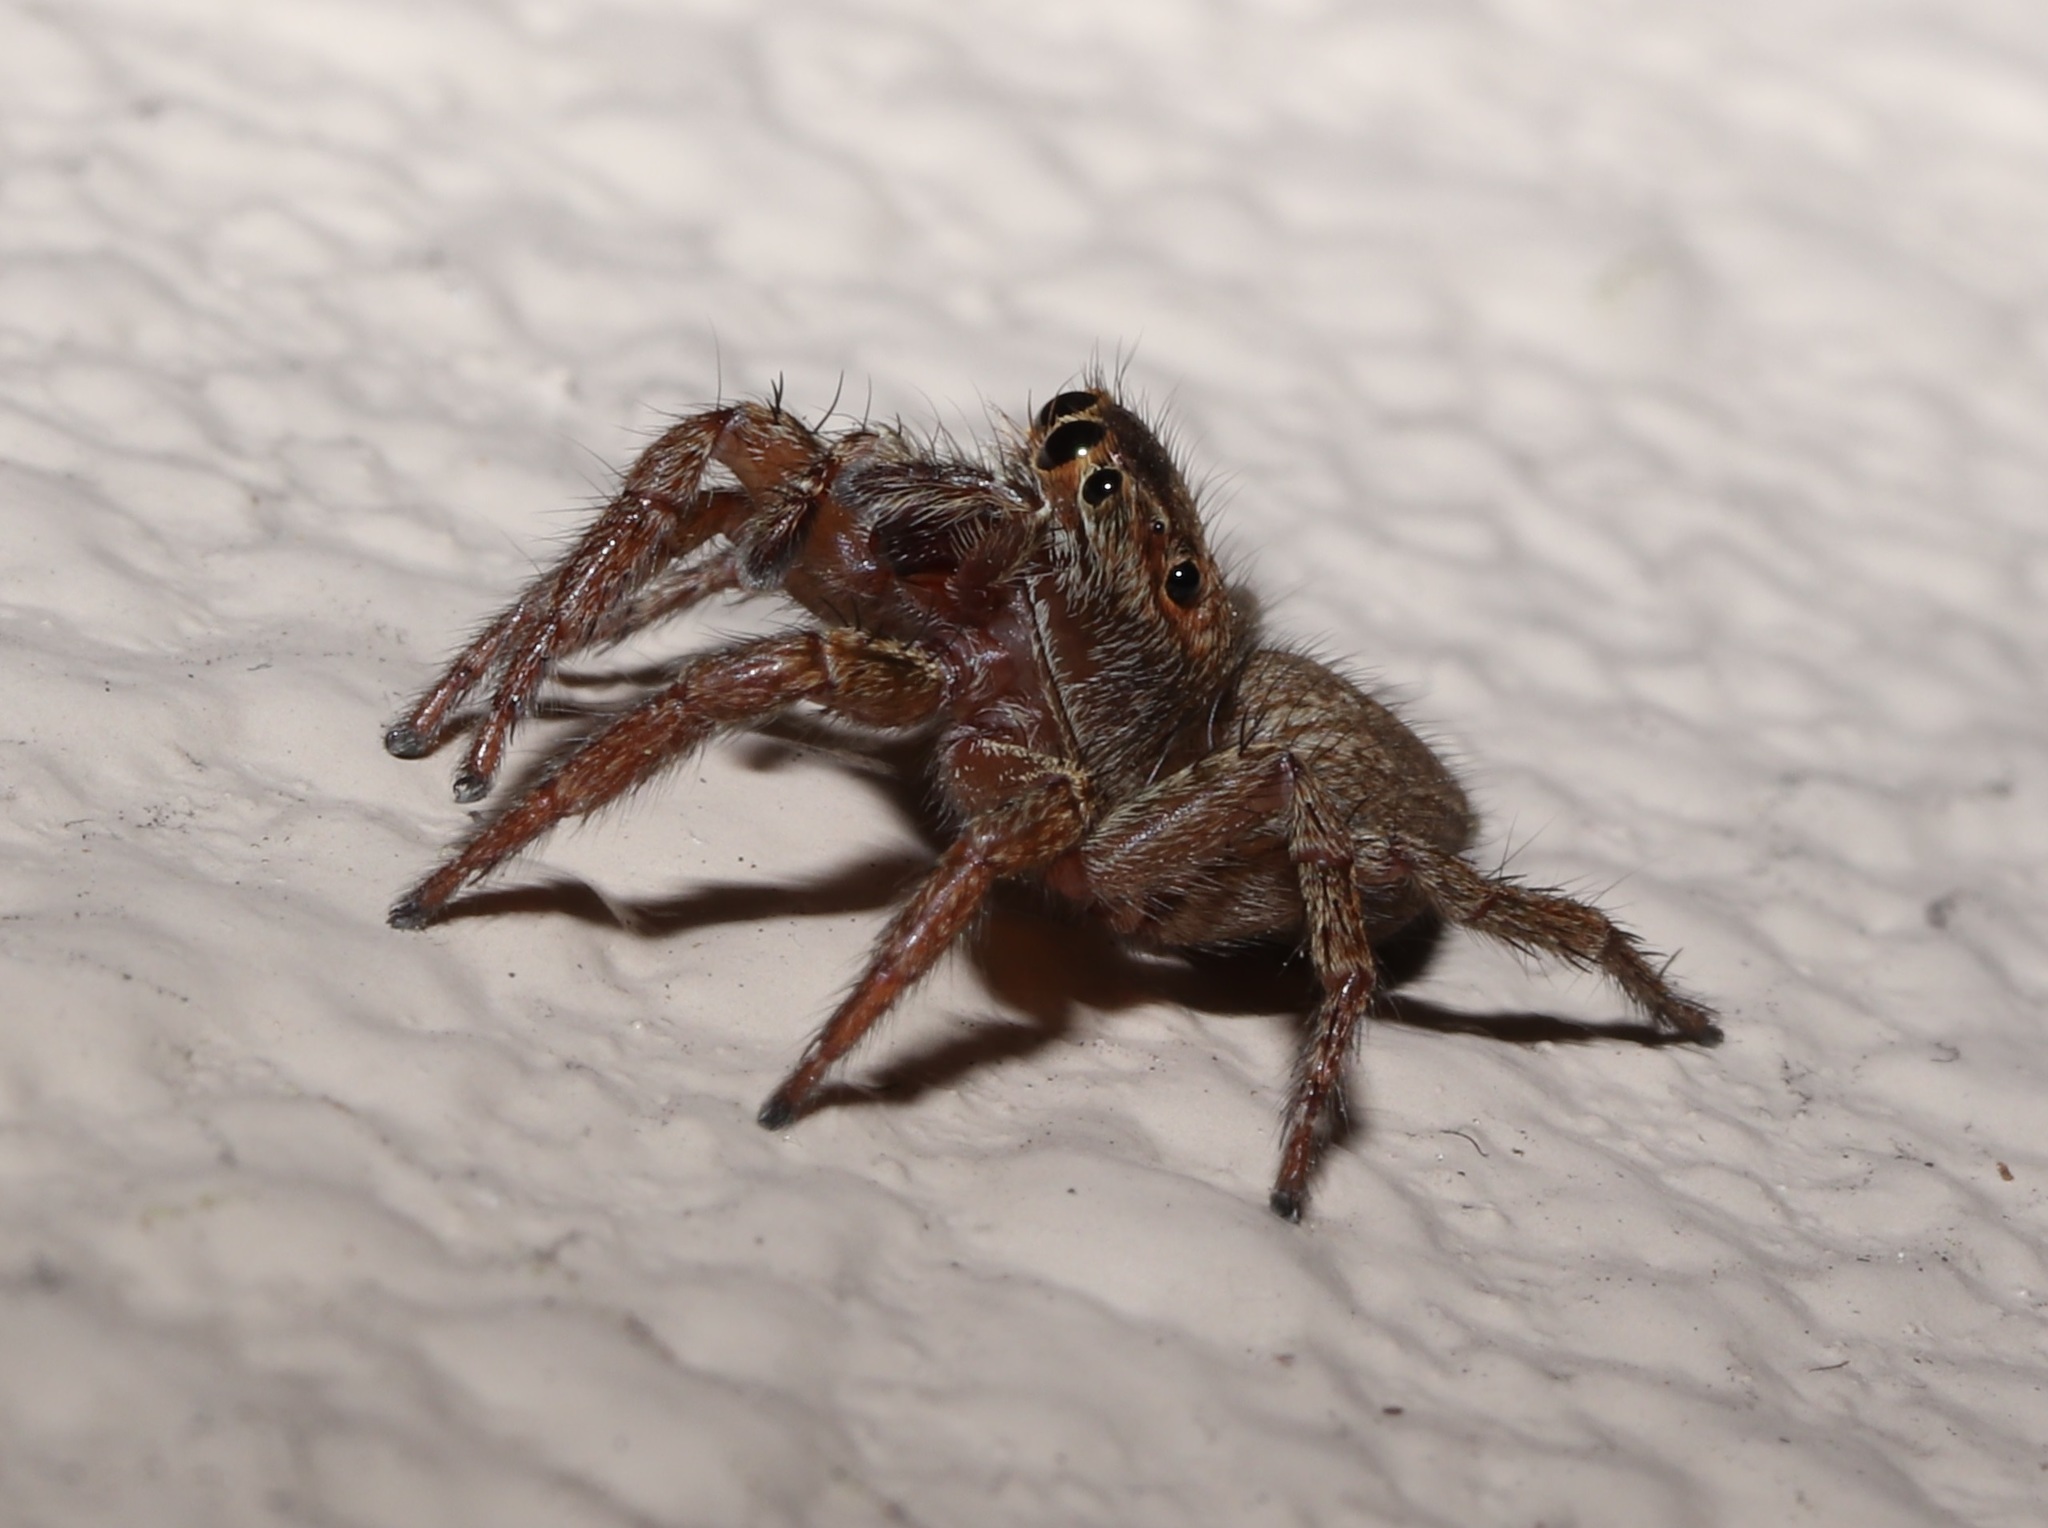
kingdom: Animalia
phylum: Arthropoda
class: Arachnida
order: Araneae
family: Salticidae
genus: Plexippus
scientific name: Plexippus setipes
